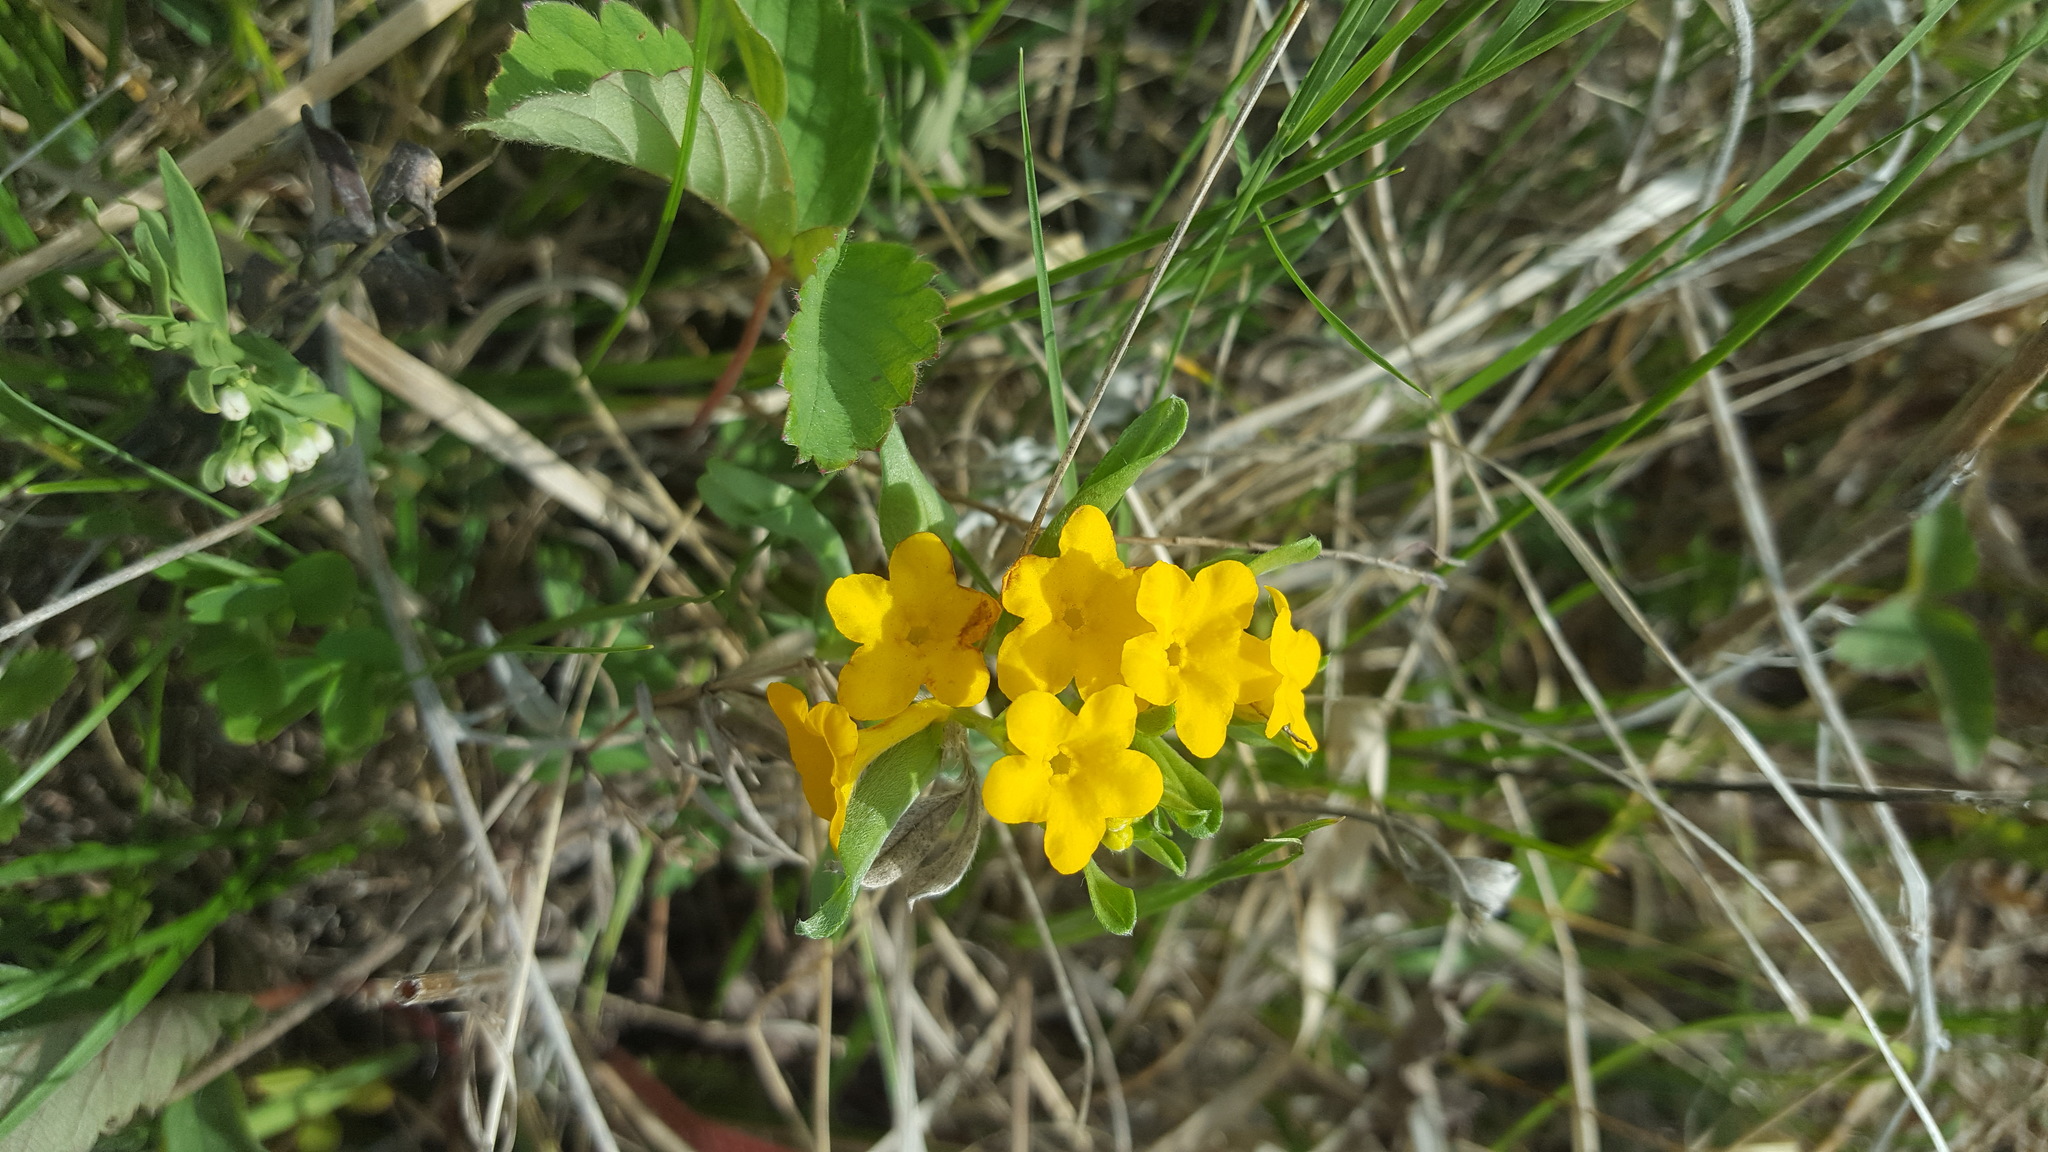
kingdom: Plantae
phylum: Tracheophyta
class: Magnoliopsida
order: Boraginales
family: Boraginaceae
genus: Lithospermum
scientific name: Lithospermum canescens
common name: Hoary puccoon
